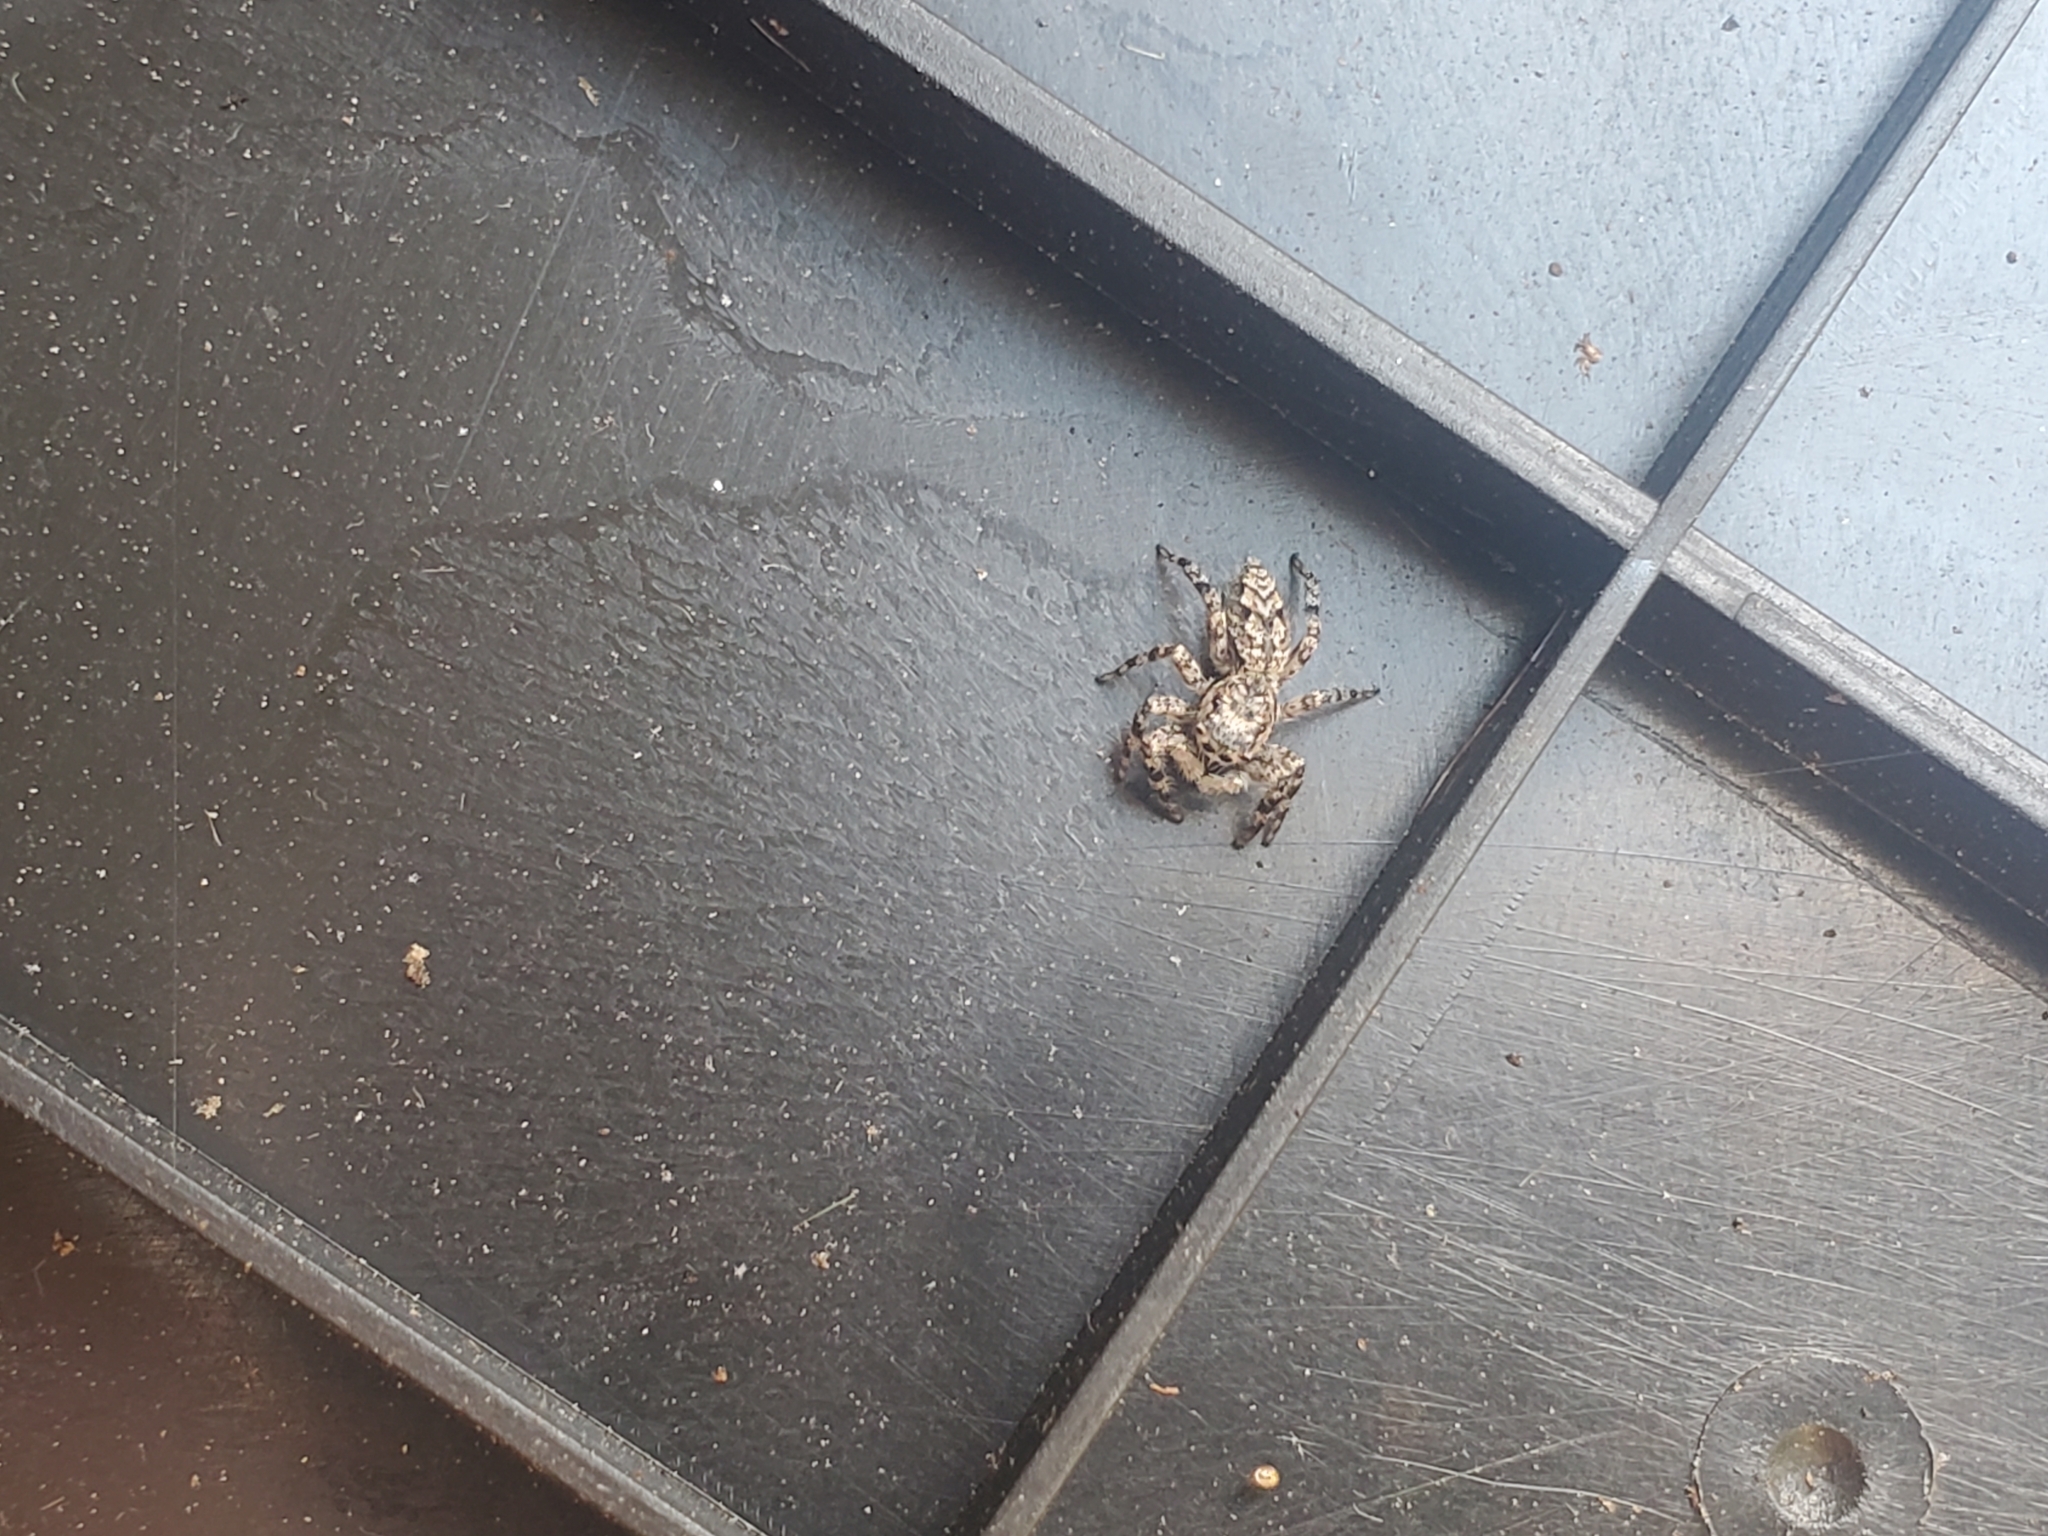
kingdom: Animalia
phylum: Arthropoda
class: Arachnida
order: Araneae
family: Salticidae
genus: Platycryptus
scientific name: Platycryptus undatus
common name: Tan jumping spider
